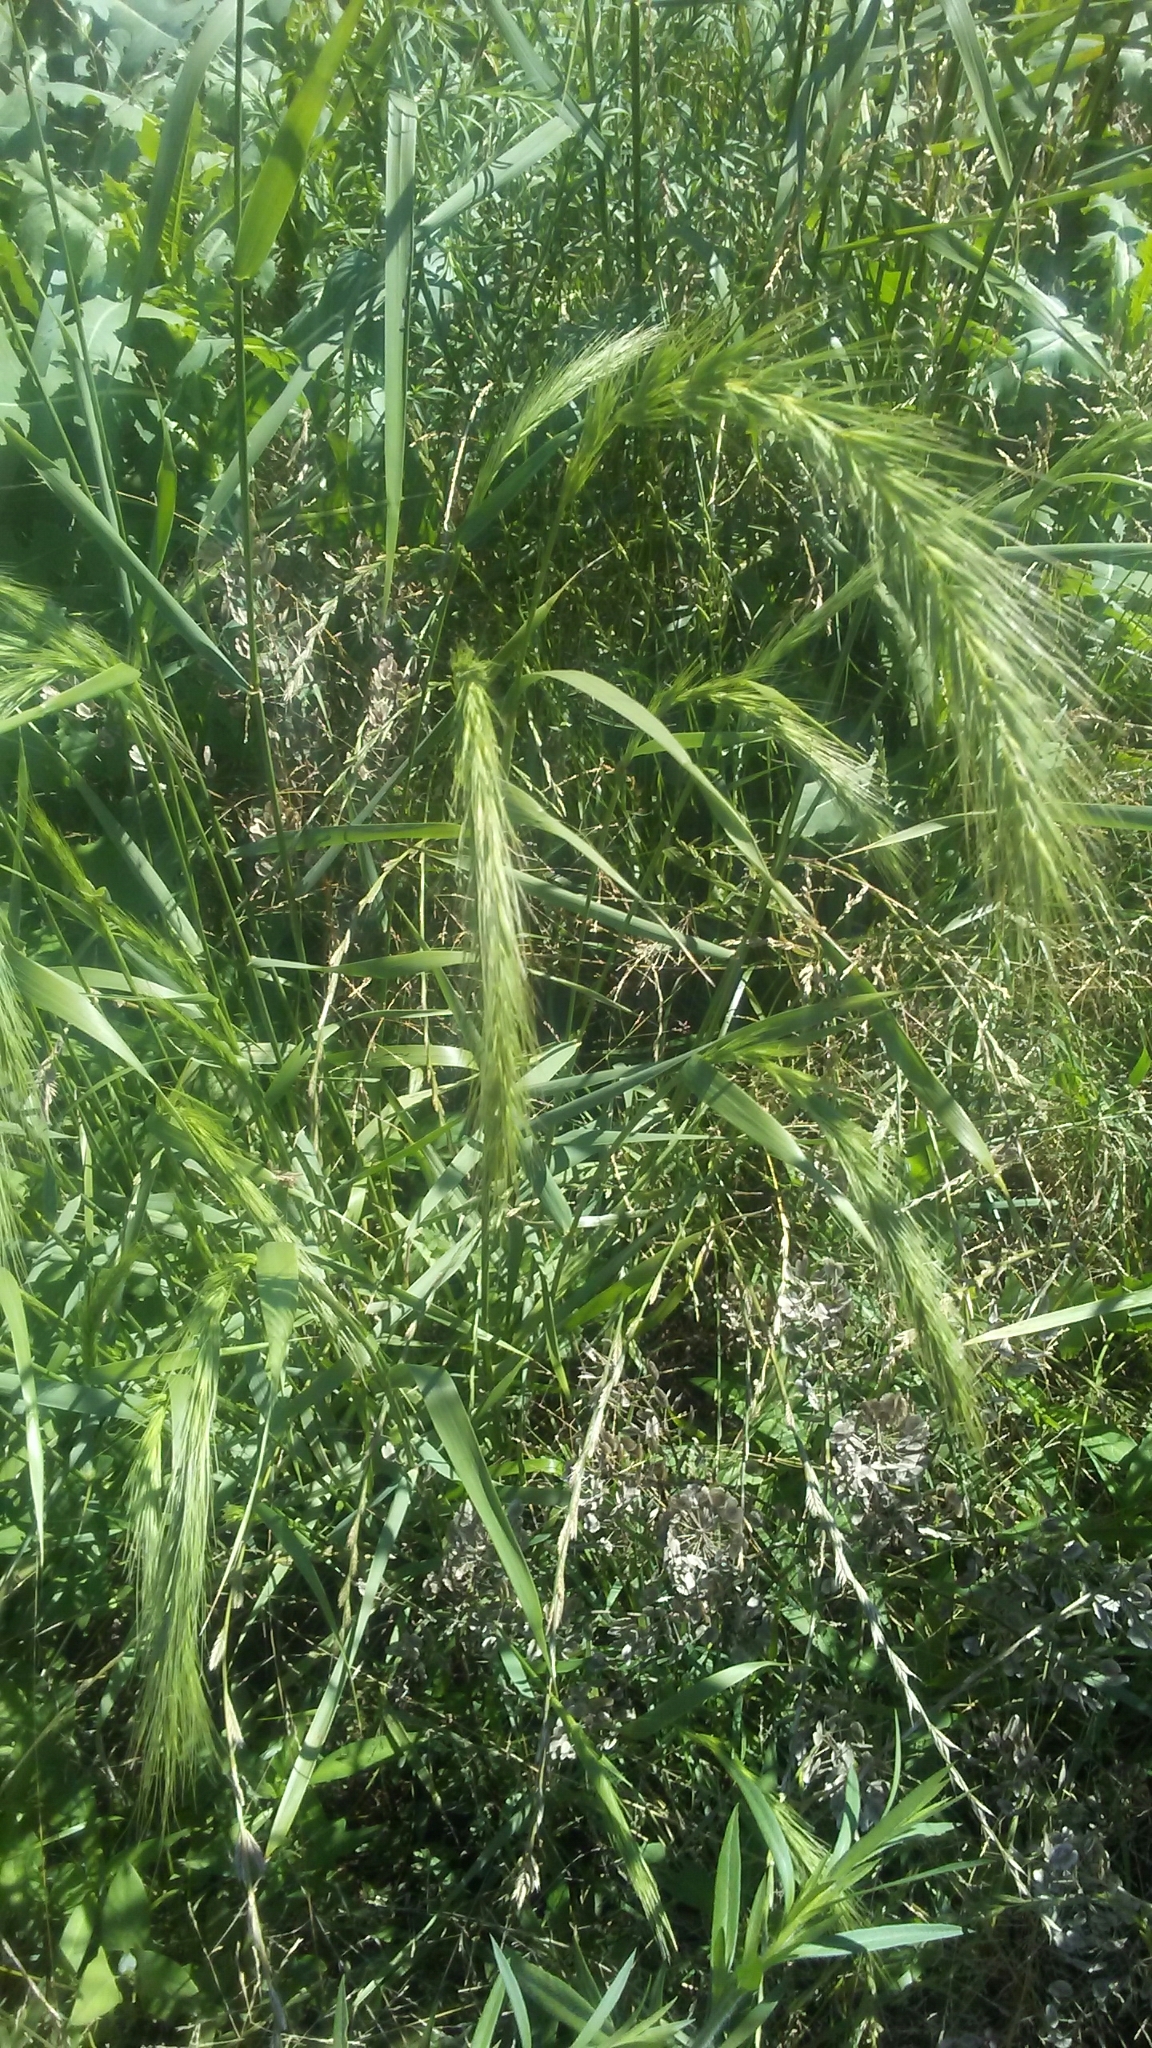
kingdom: Plantae
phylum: Tracheophyta
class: Liliopsida
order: Poales
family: Poaceae
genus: Elymus
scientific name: Elymus canadensis
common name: Canada wild rye
